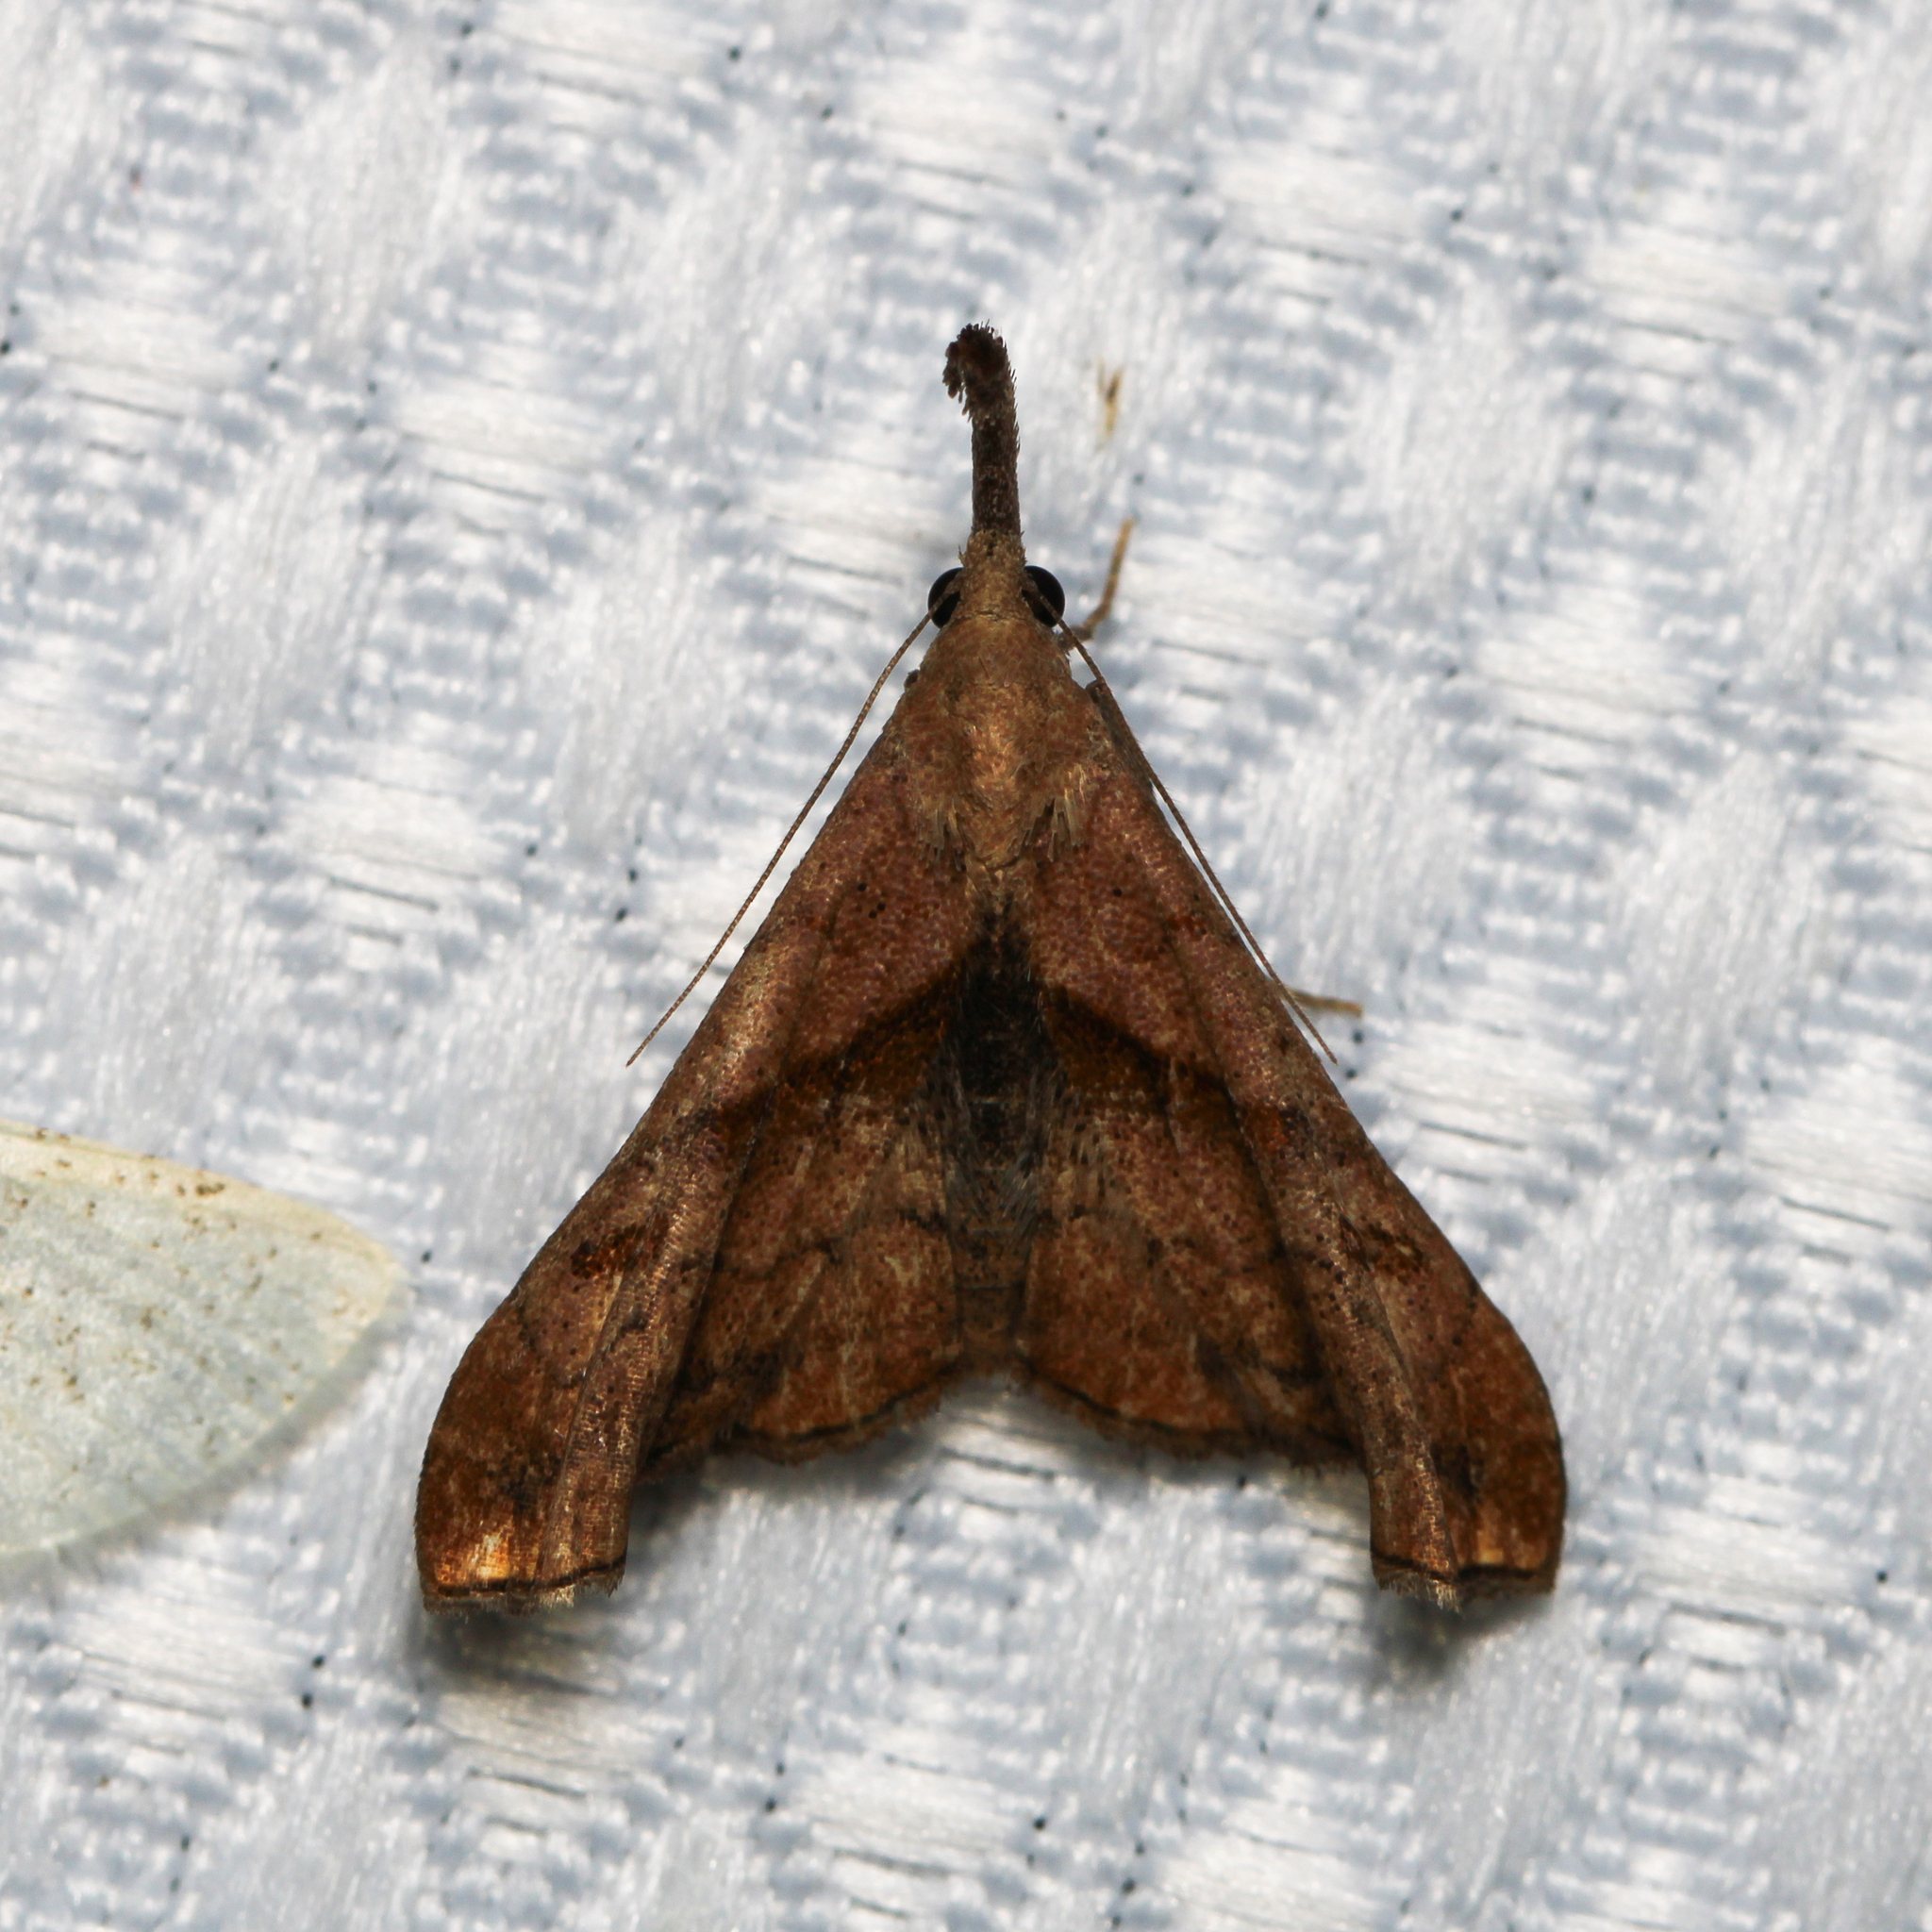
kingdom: Animalia
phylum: Arthropoda
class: Insecta
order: Lepidoptera
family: Erebidae
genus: Palthis
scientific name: Palthis angulalis
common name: Dark-spotted palthis moth
